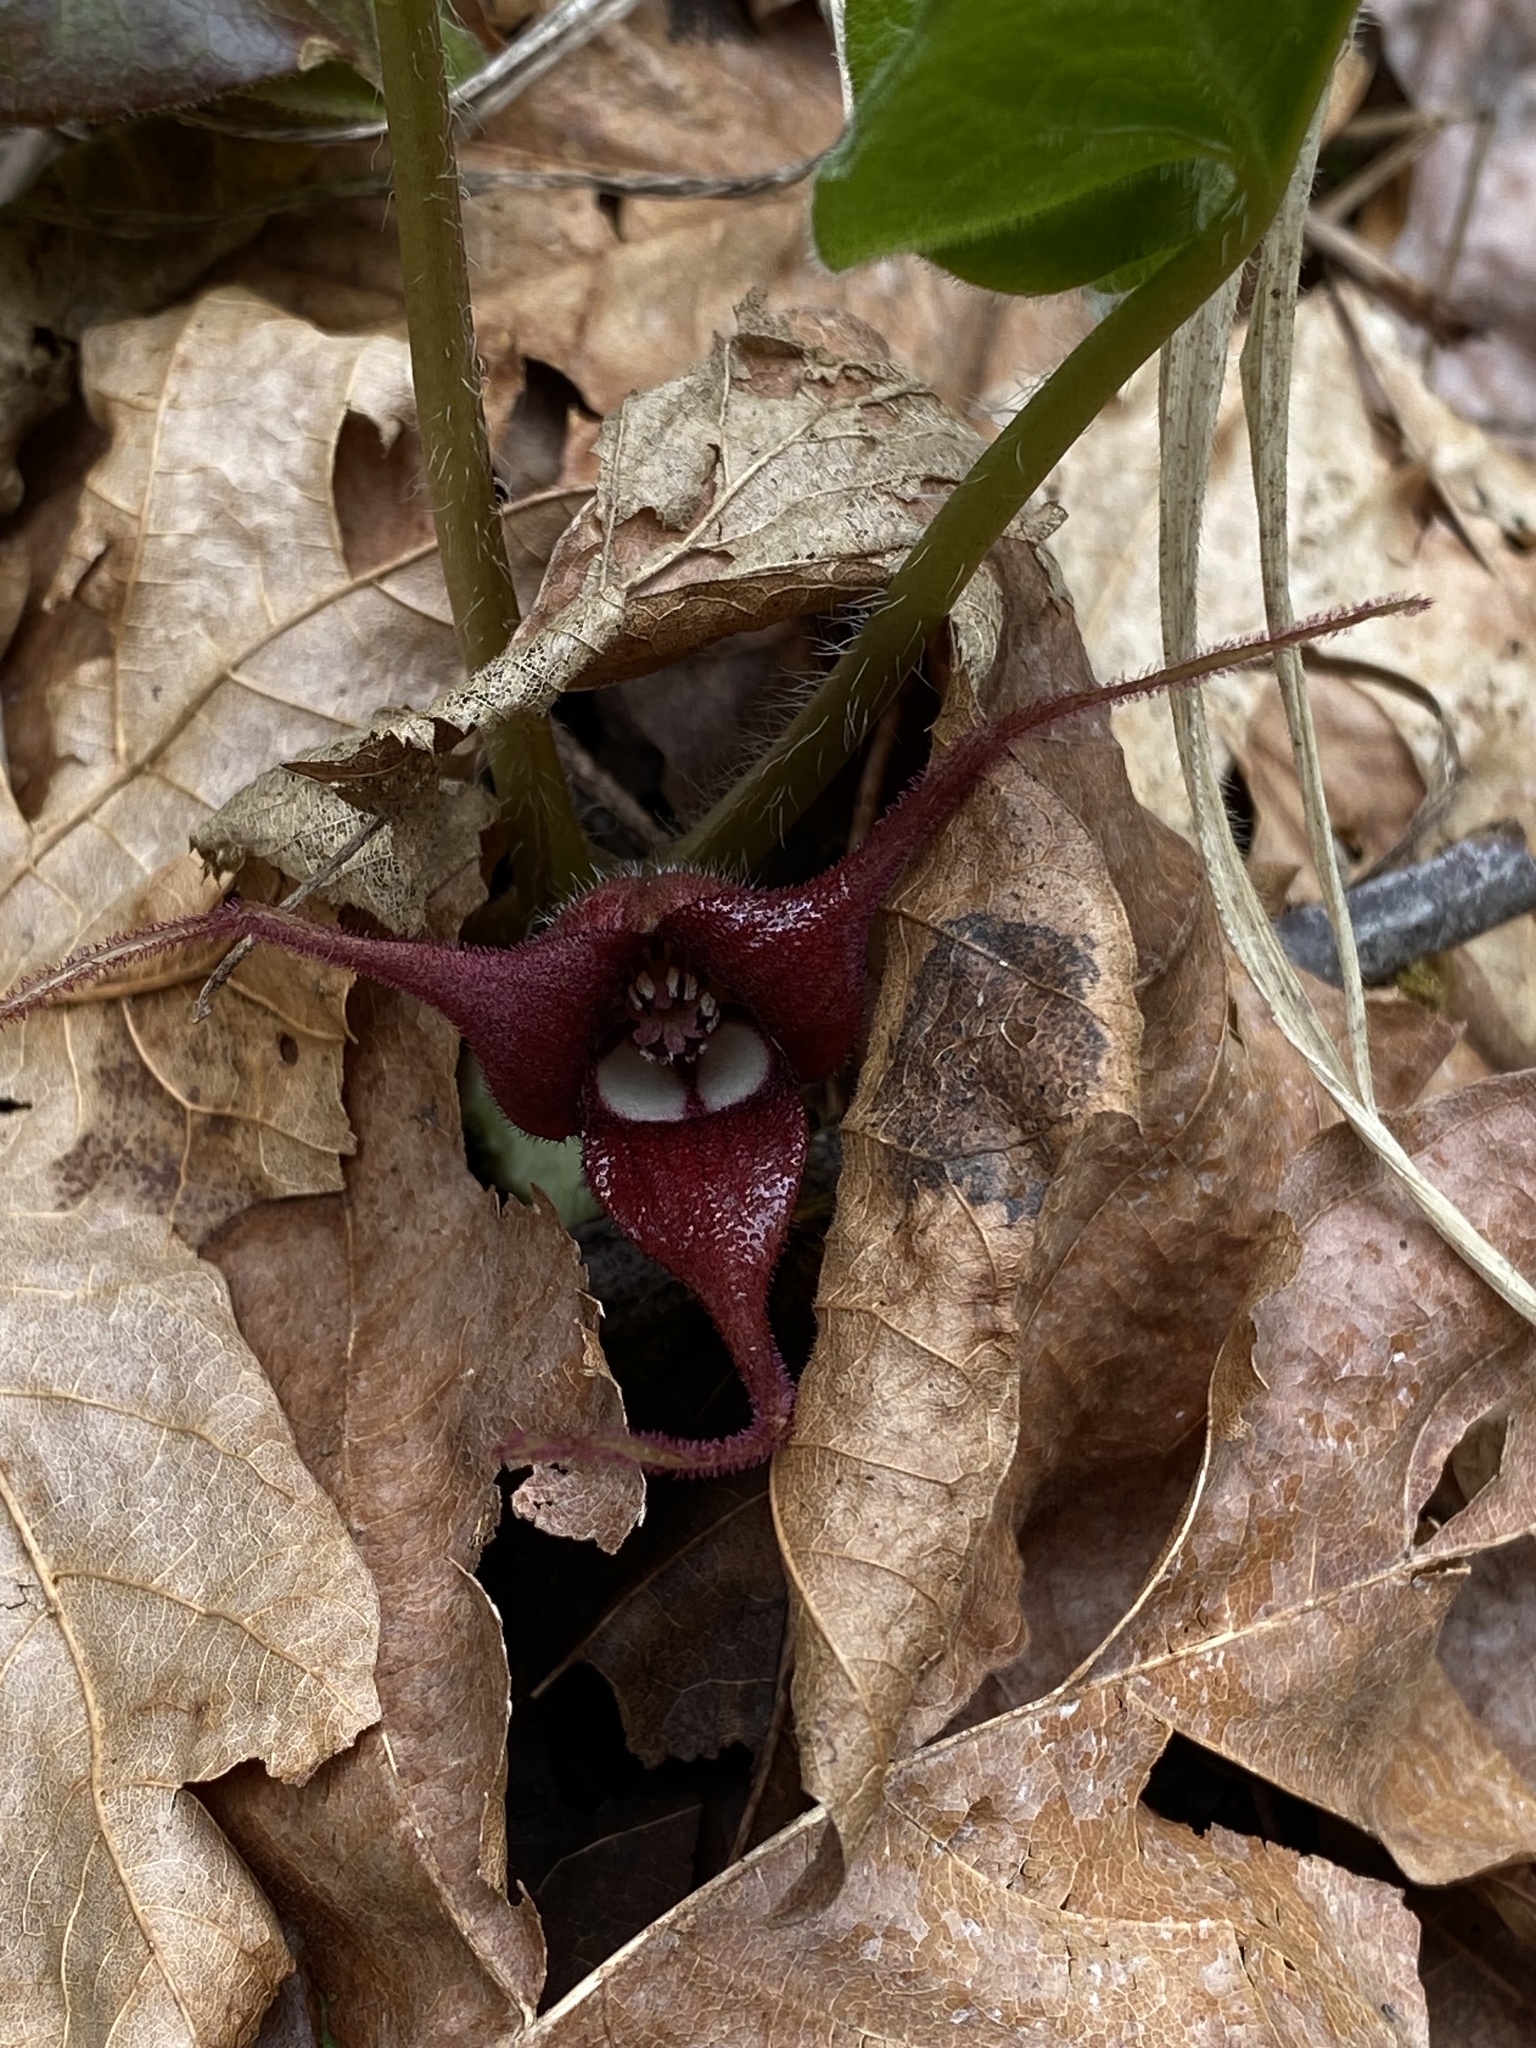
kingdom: Plantae
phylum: Tracheophyta
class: Magnoliopsida
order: Piperales
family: Aristolochiaceae
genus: Asarum
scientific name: Asarum caudatum
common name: Wild ginger
